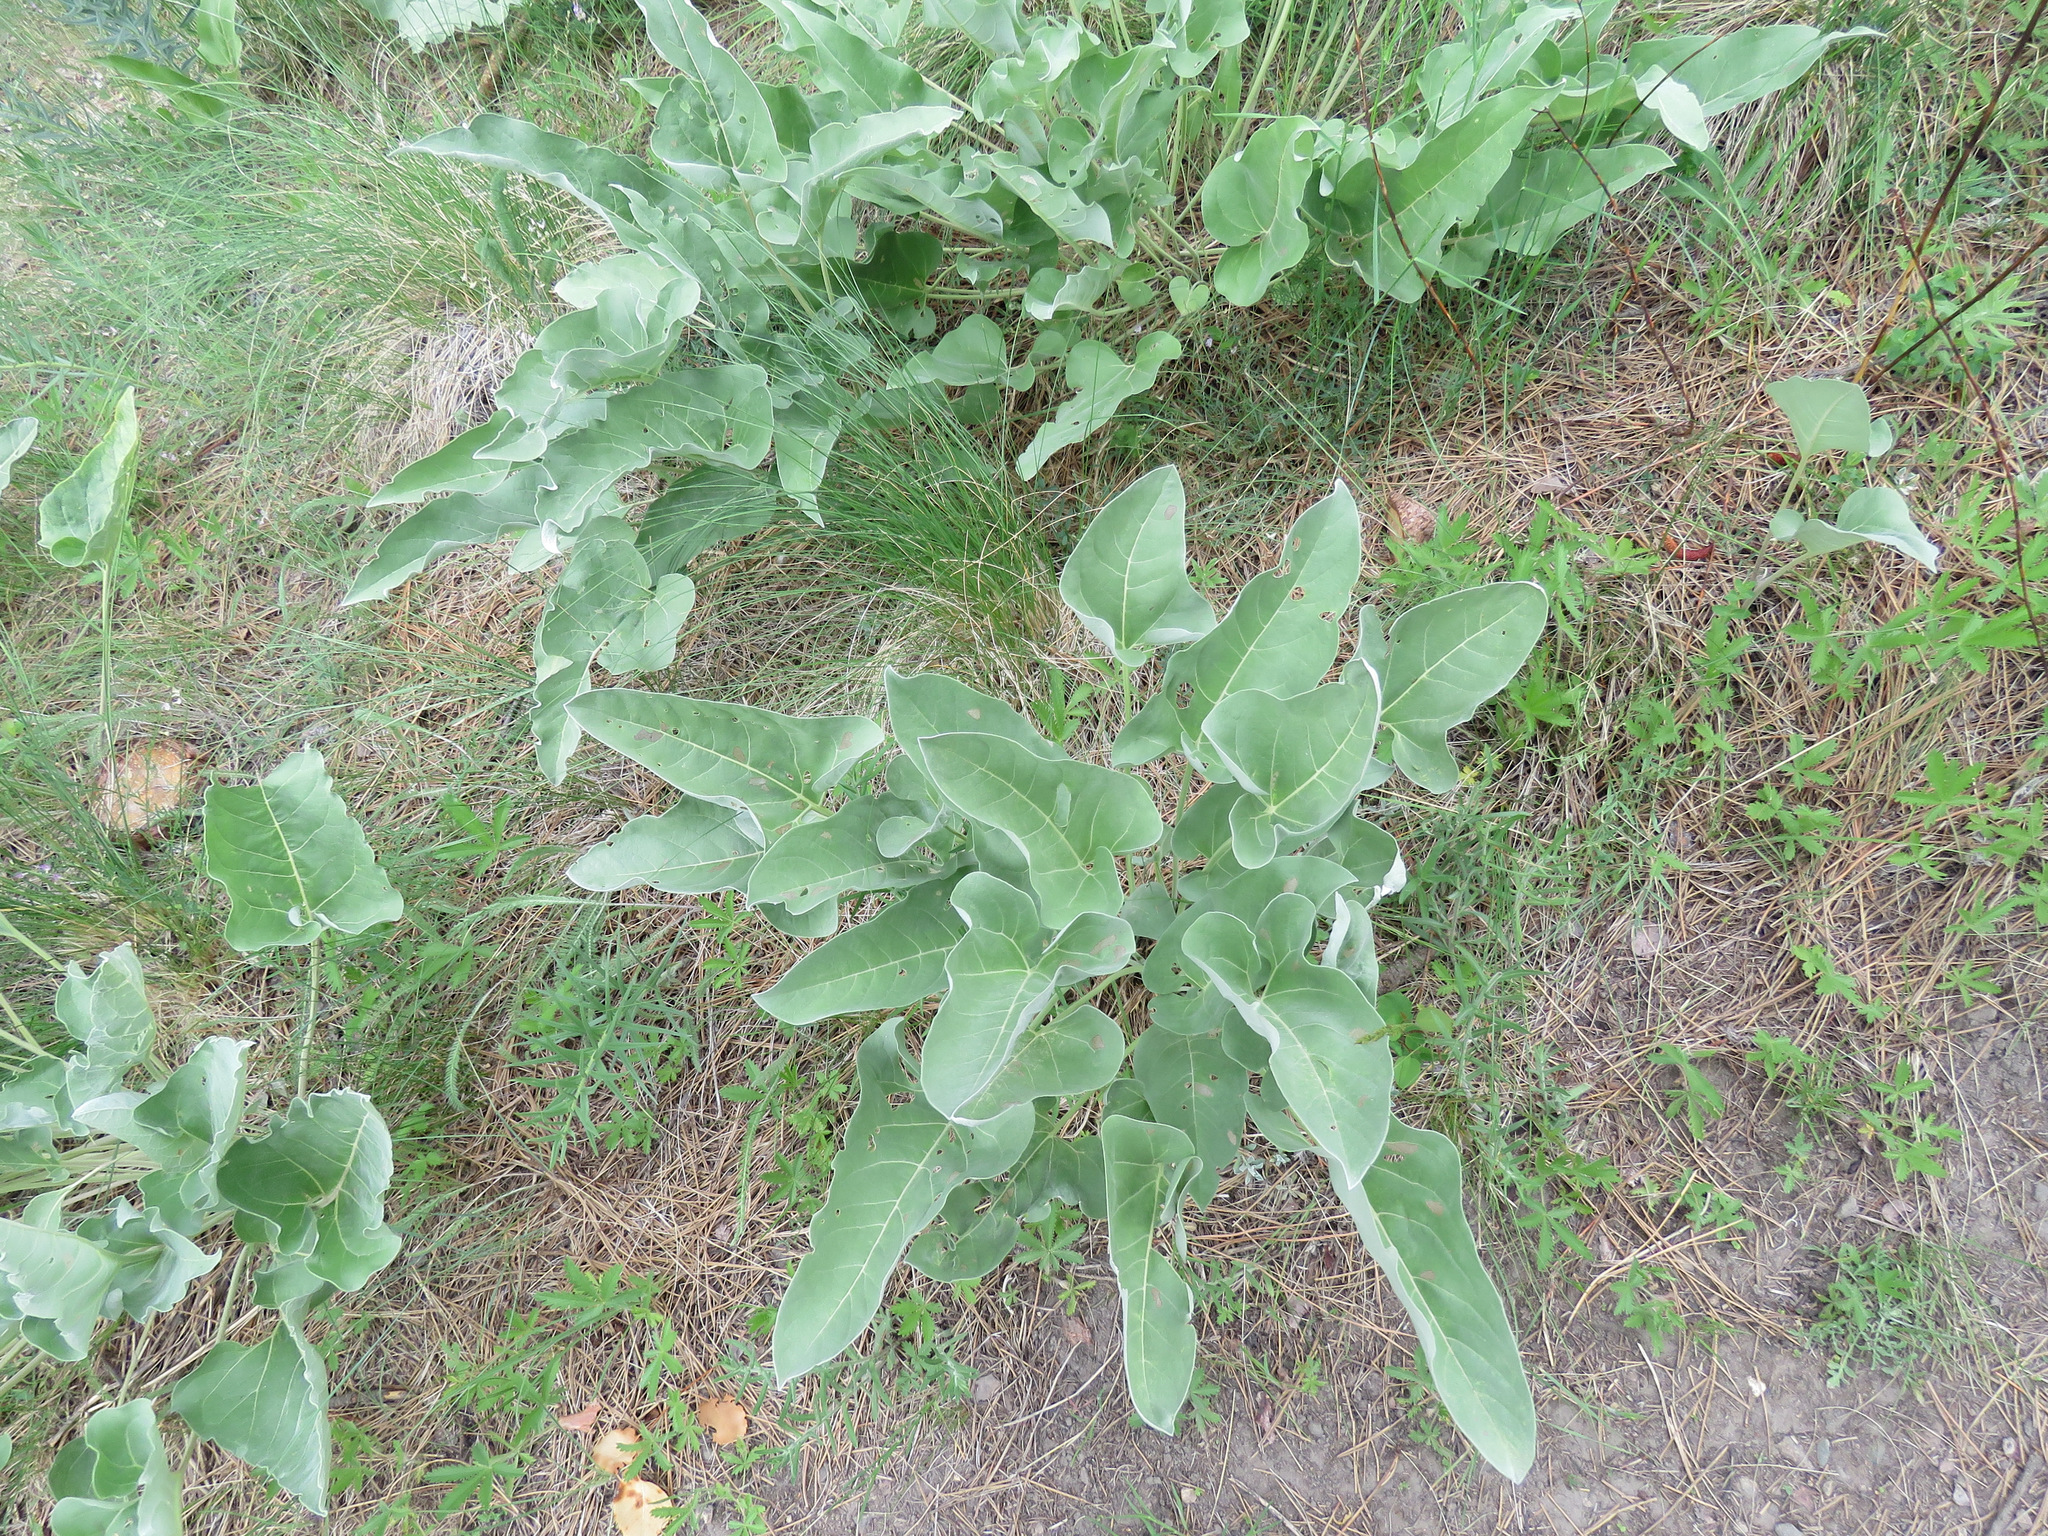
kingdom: Plantae
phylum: Tracheophyta
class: Magnoliopsida
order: Asterales
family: Asteraceae
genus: Wyethia
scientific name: Wyethia sagittata
